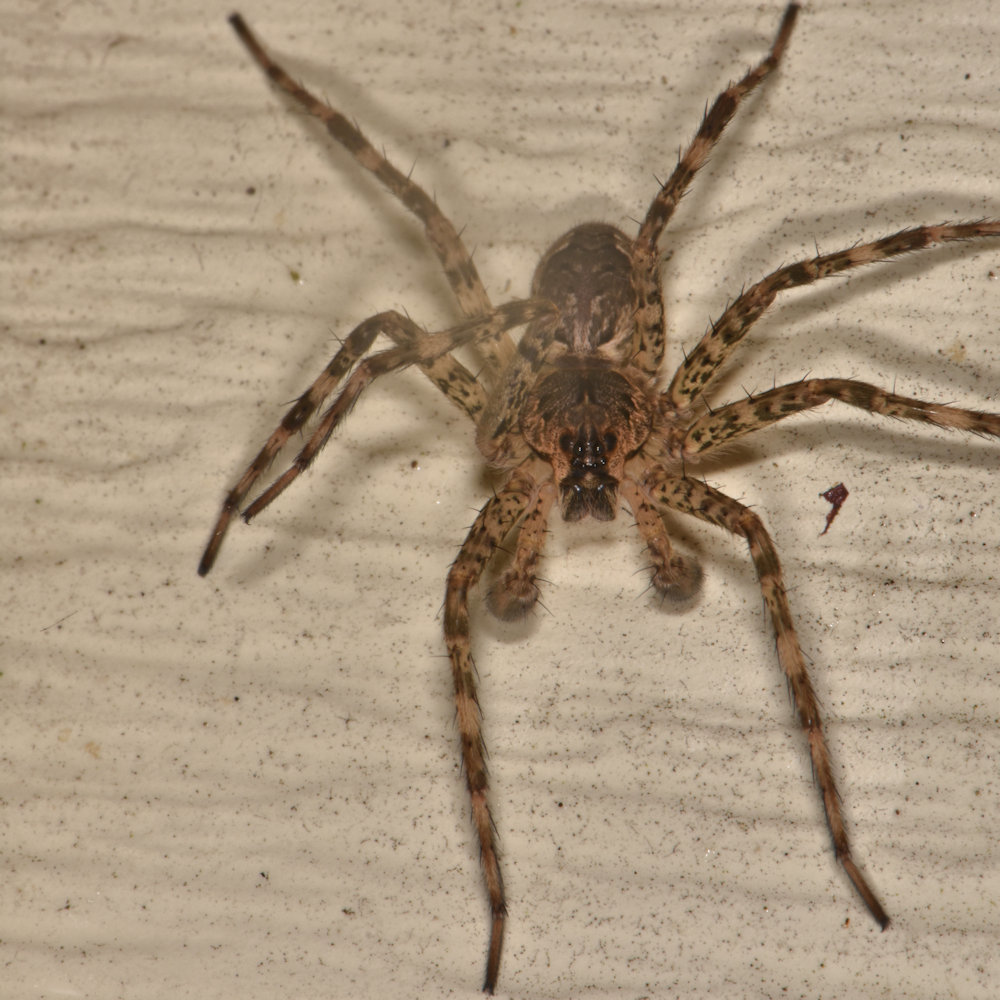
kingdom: Animalia
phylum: Arthropoda
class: Arachnida
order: Araneae
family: Pisauridae
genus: Dolomedes
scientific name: Dolomedes tenebrosus
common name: Dark fishing spider
